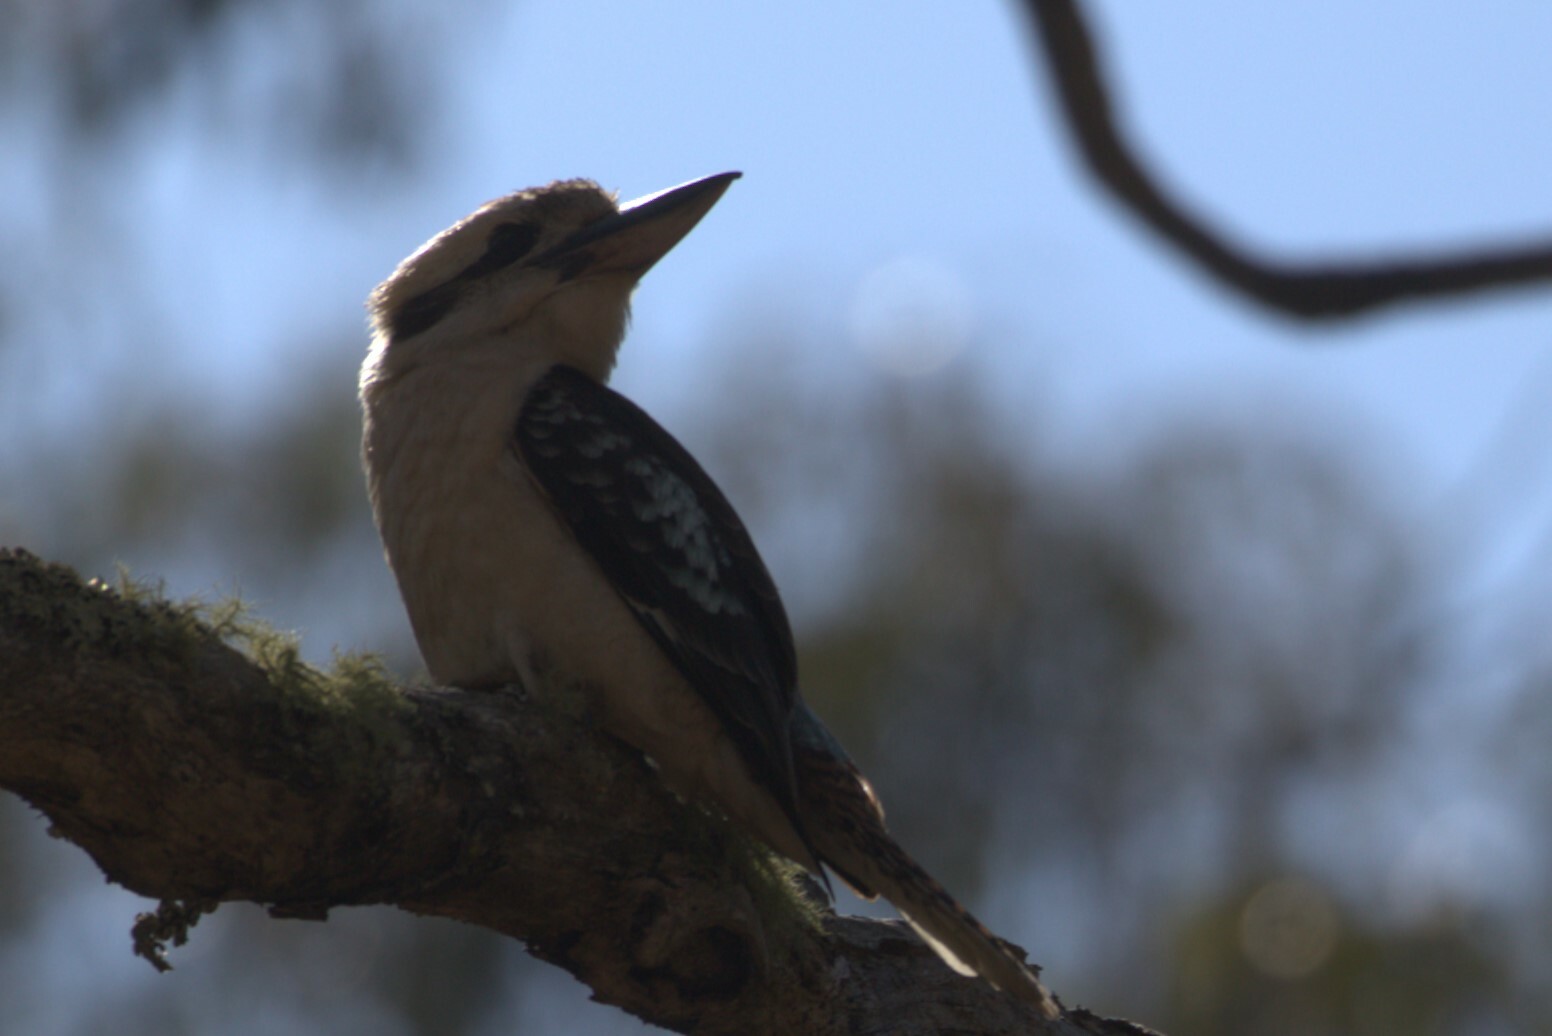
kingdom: Animalia
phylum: Chordata
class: Aves
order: Coraciiformes
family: Alcedinidae
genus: Dacelo
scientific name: Dacelo novaeguineae
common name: Laughing kookaburra
